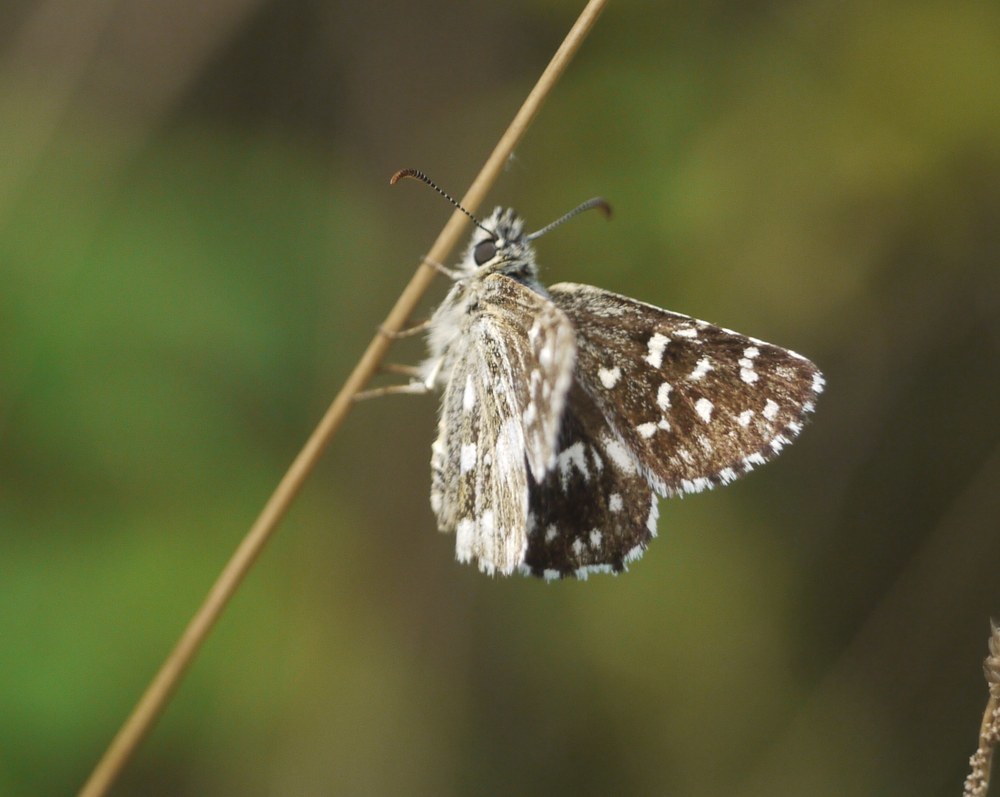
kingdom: Animalia
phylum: Arthropoda
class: Insecta
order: Lepidoptera
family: Hesperiidae
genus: Pyrgus
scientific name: Pyrgus malvae
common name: Grizzled skipper
